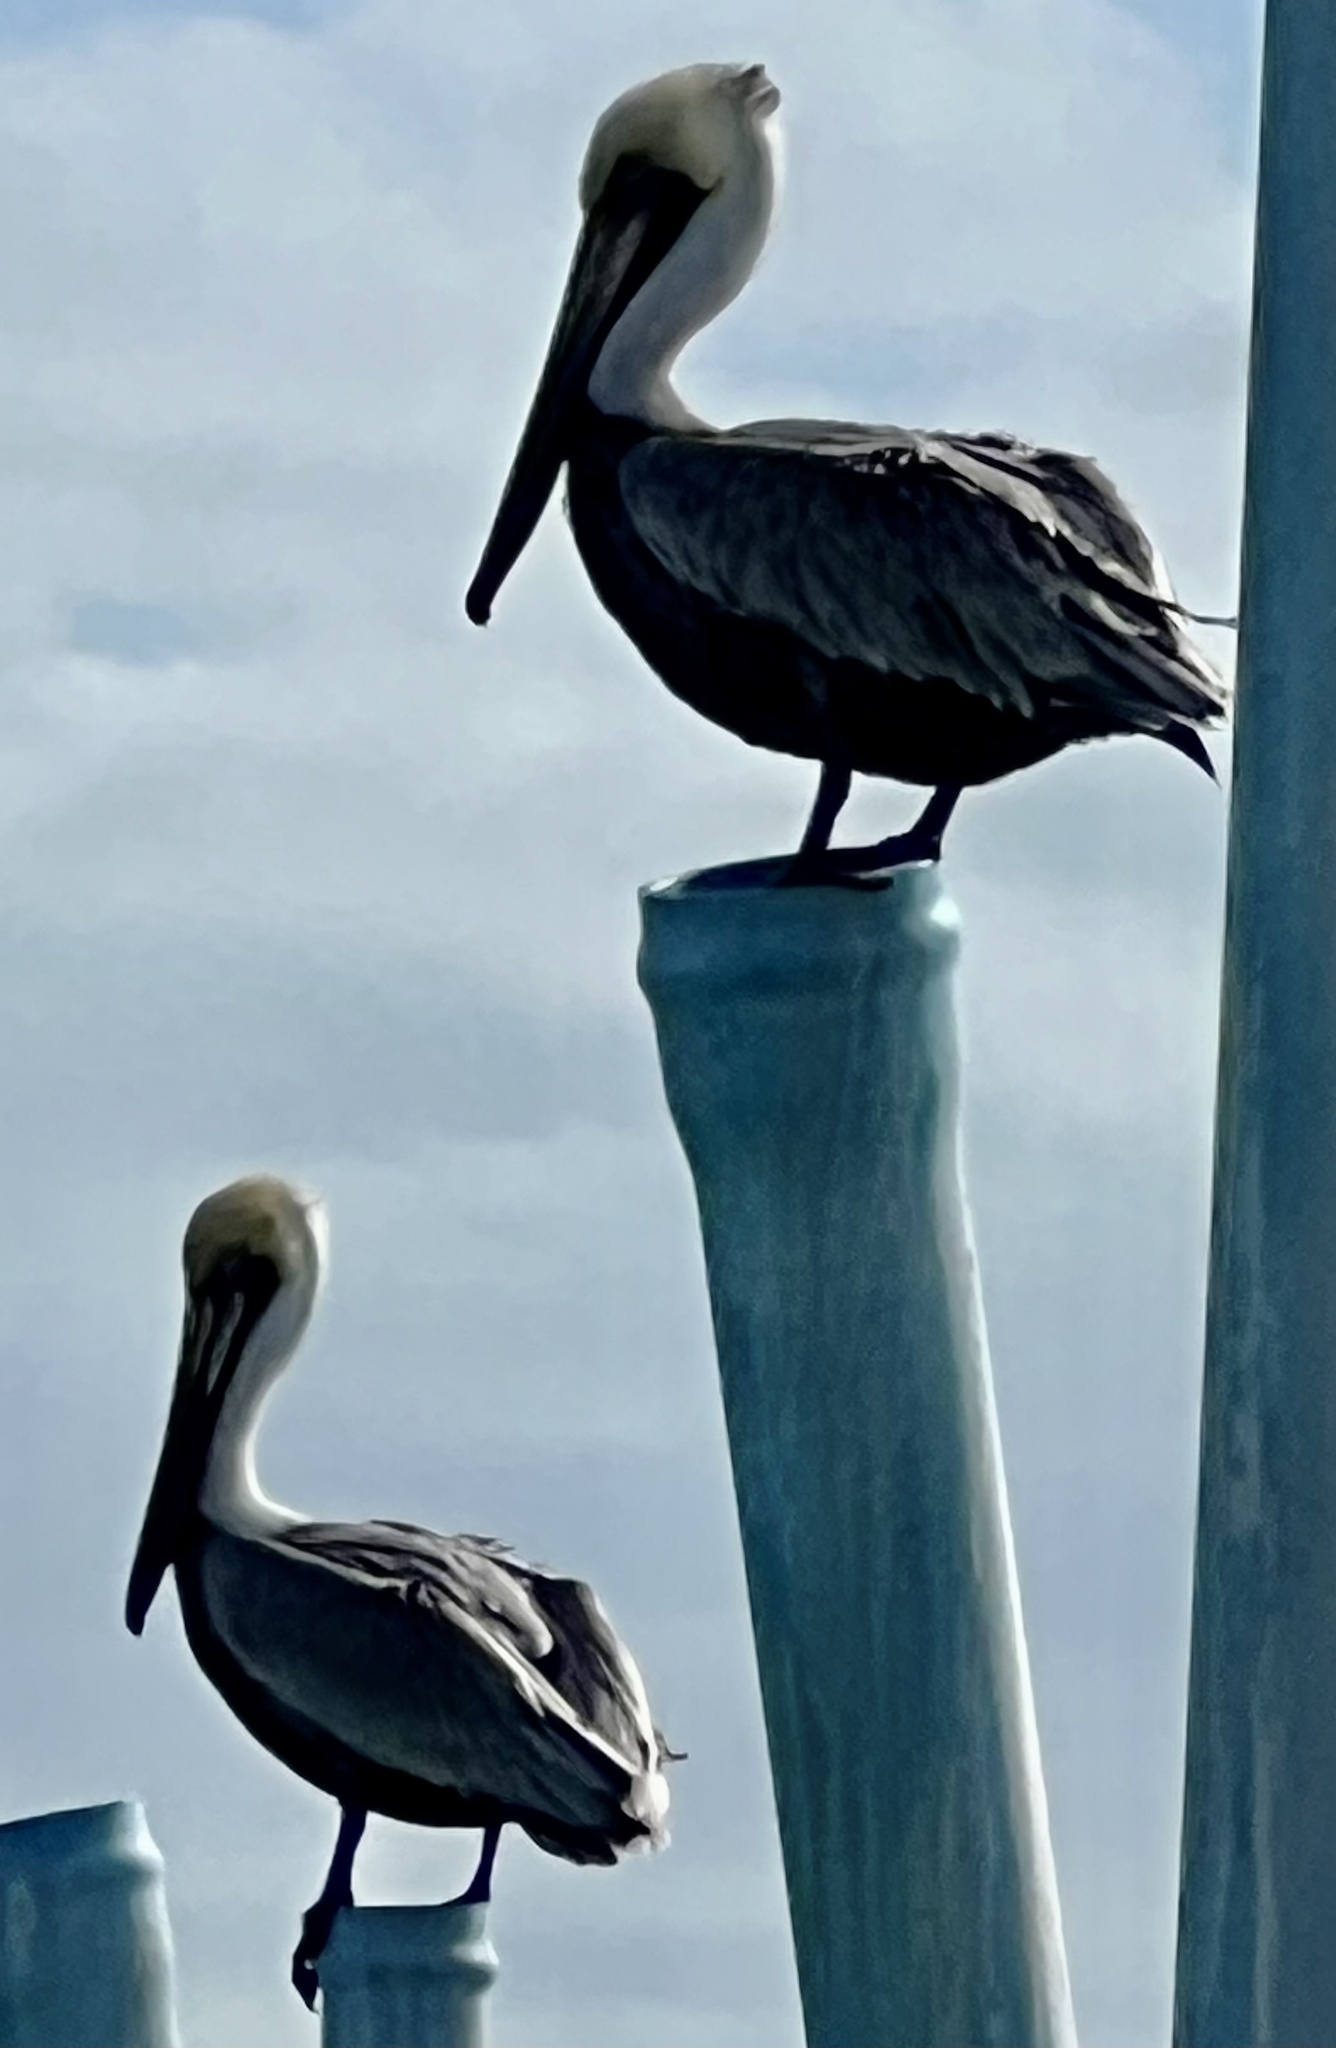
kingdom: Animalia
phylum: Chordata
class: Aves
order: Pelecaniformes
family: Pelecanidae
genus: Pelecanus
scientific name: Pelecanus occidentalis
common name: Brown pelican
